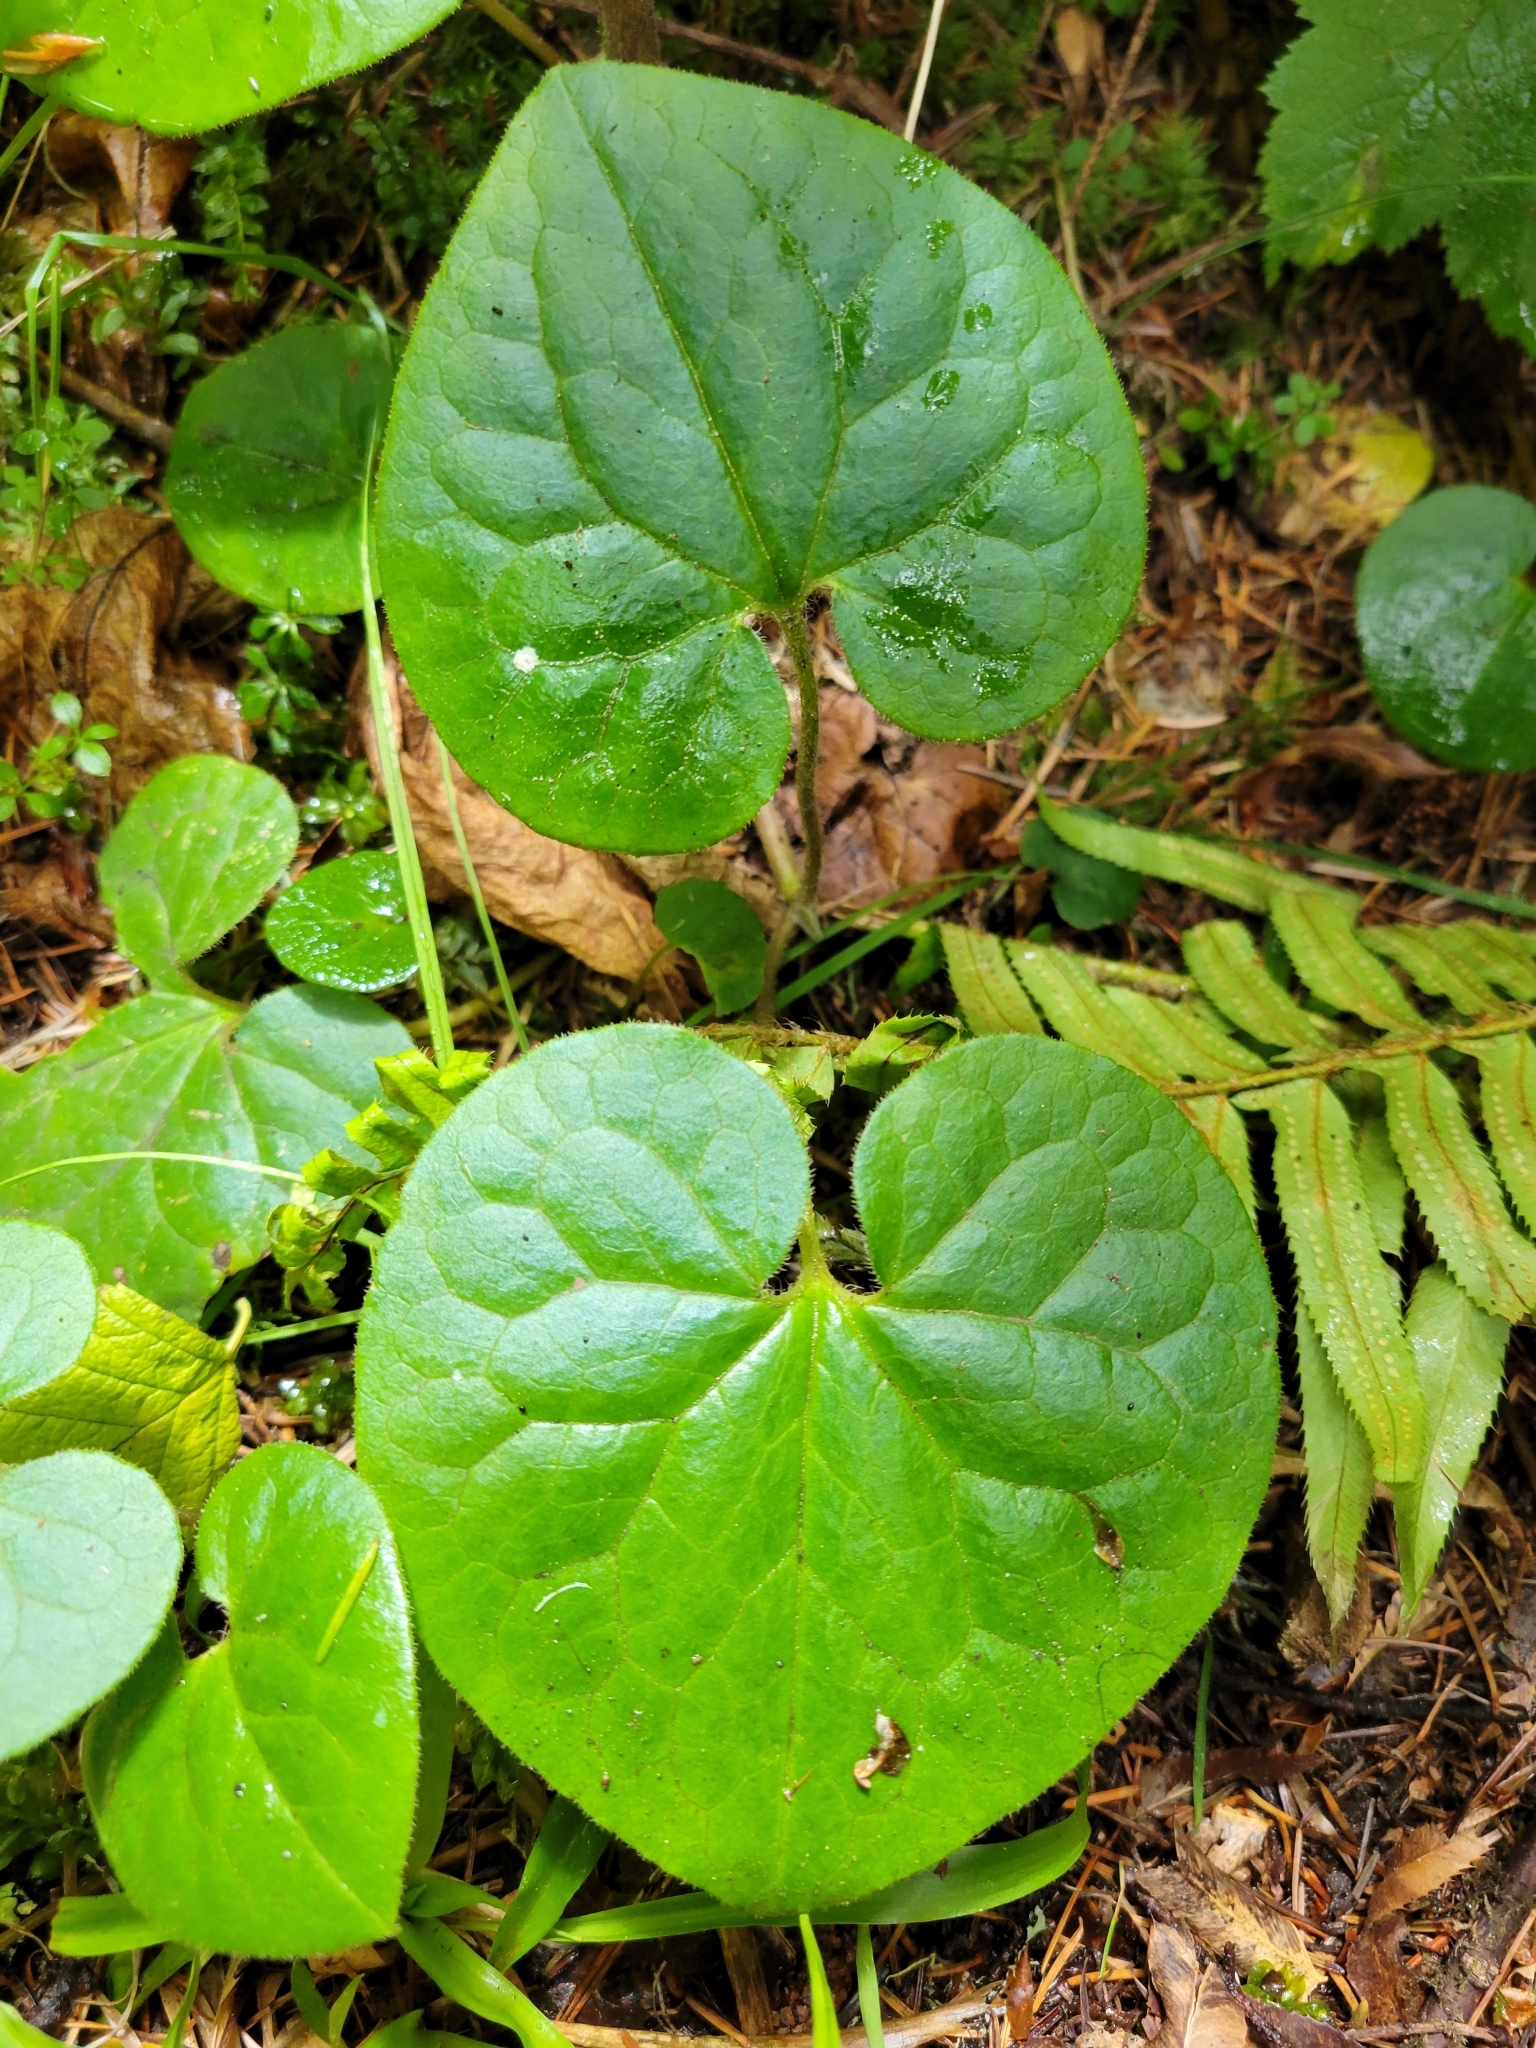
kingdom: Plantae
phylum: Tracheophyta
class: Magnoliopsida
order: Piperales
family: Aristolochiaceae
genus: Asarum
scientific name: Asarum caudatum
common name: Wild ginger
